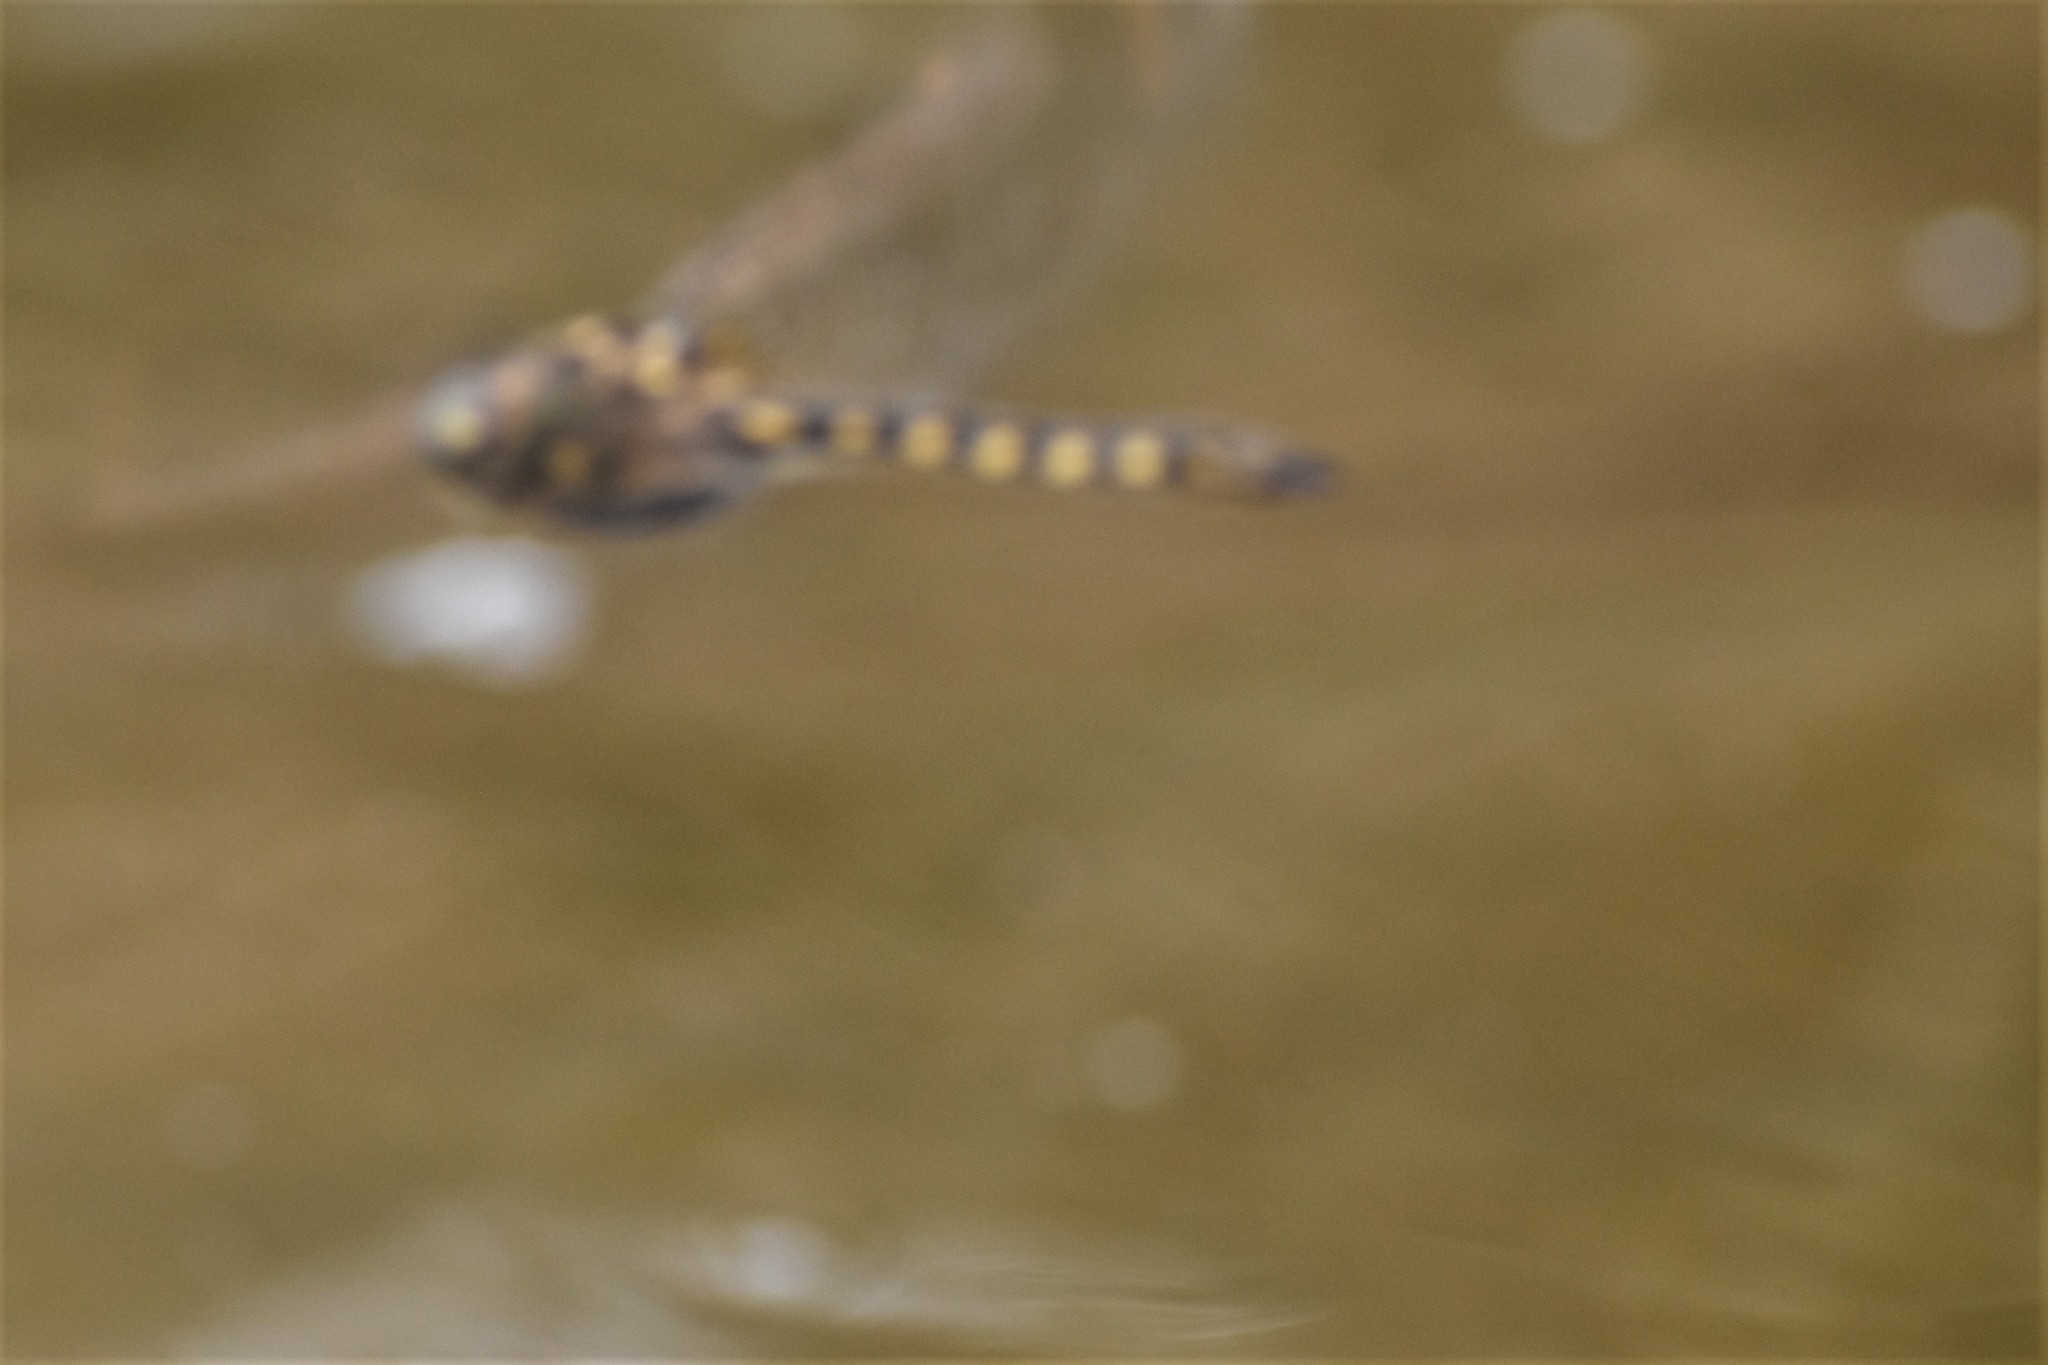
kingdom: Animalia
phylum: Arthropoda
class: Insecta
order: Odonata
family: Corduliidae
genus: Procordulia
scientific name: Procordulia grayi
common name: Yellow spotted dragonfly
